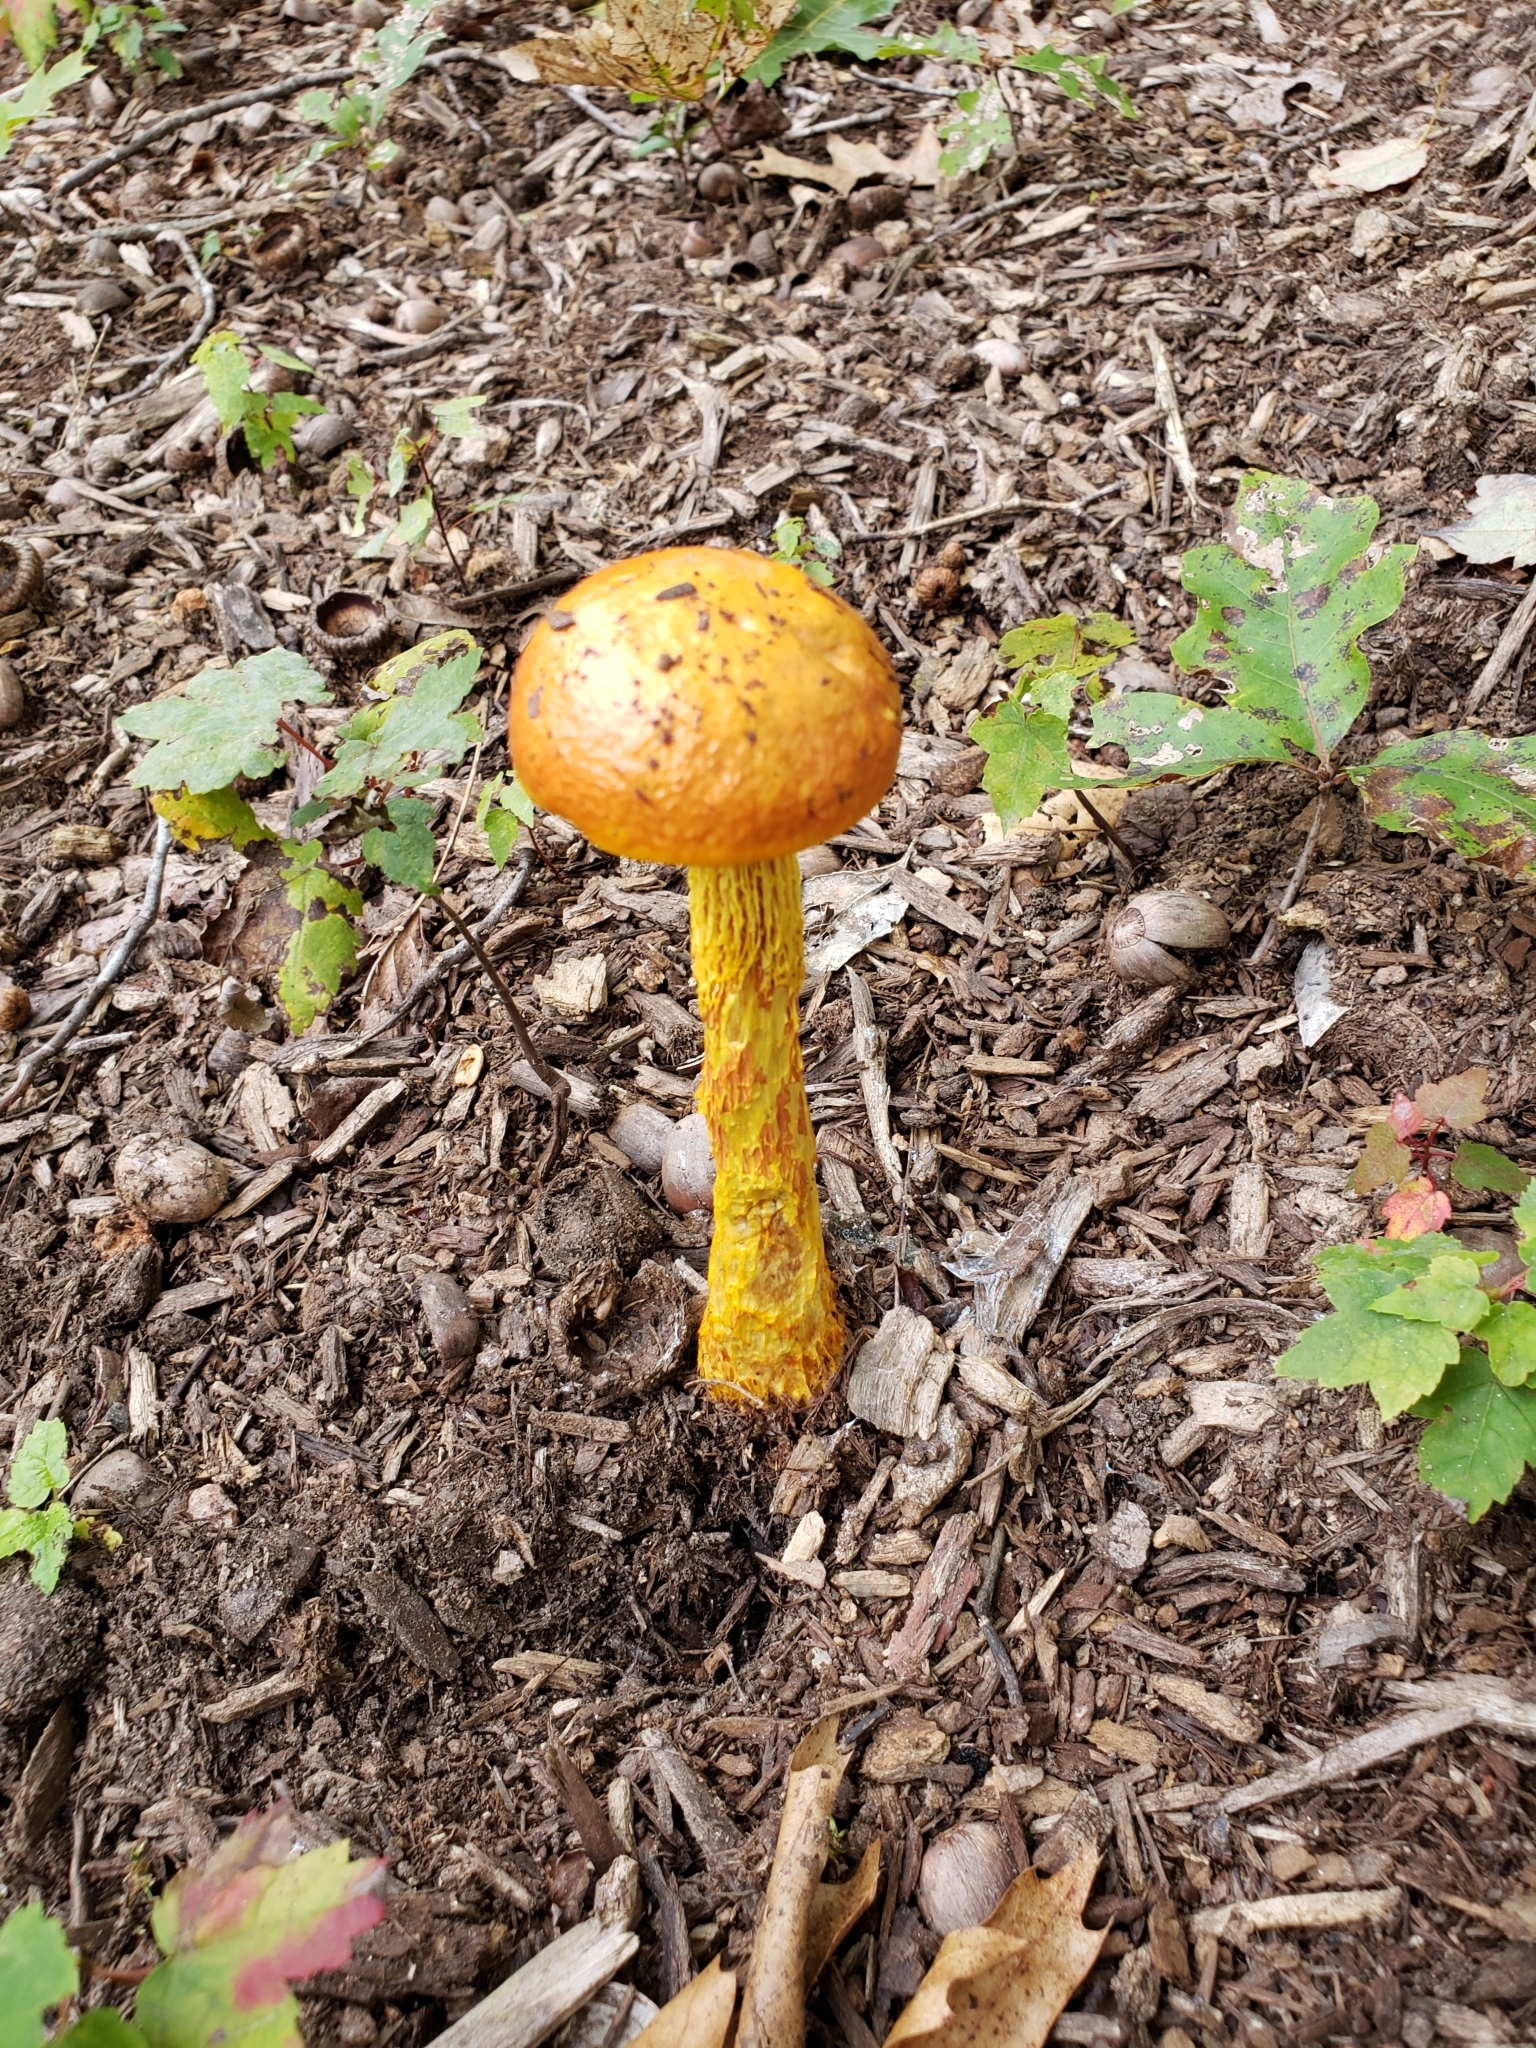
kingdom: Fungi
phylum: Basidiomycota
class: Agaricomycetes
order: Boletales
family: Boletaceae
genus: Aureoboletus
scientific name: Aureoboletus betula
